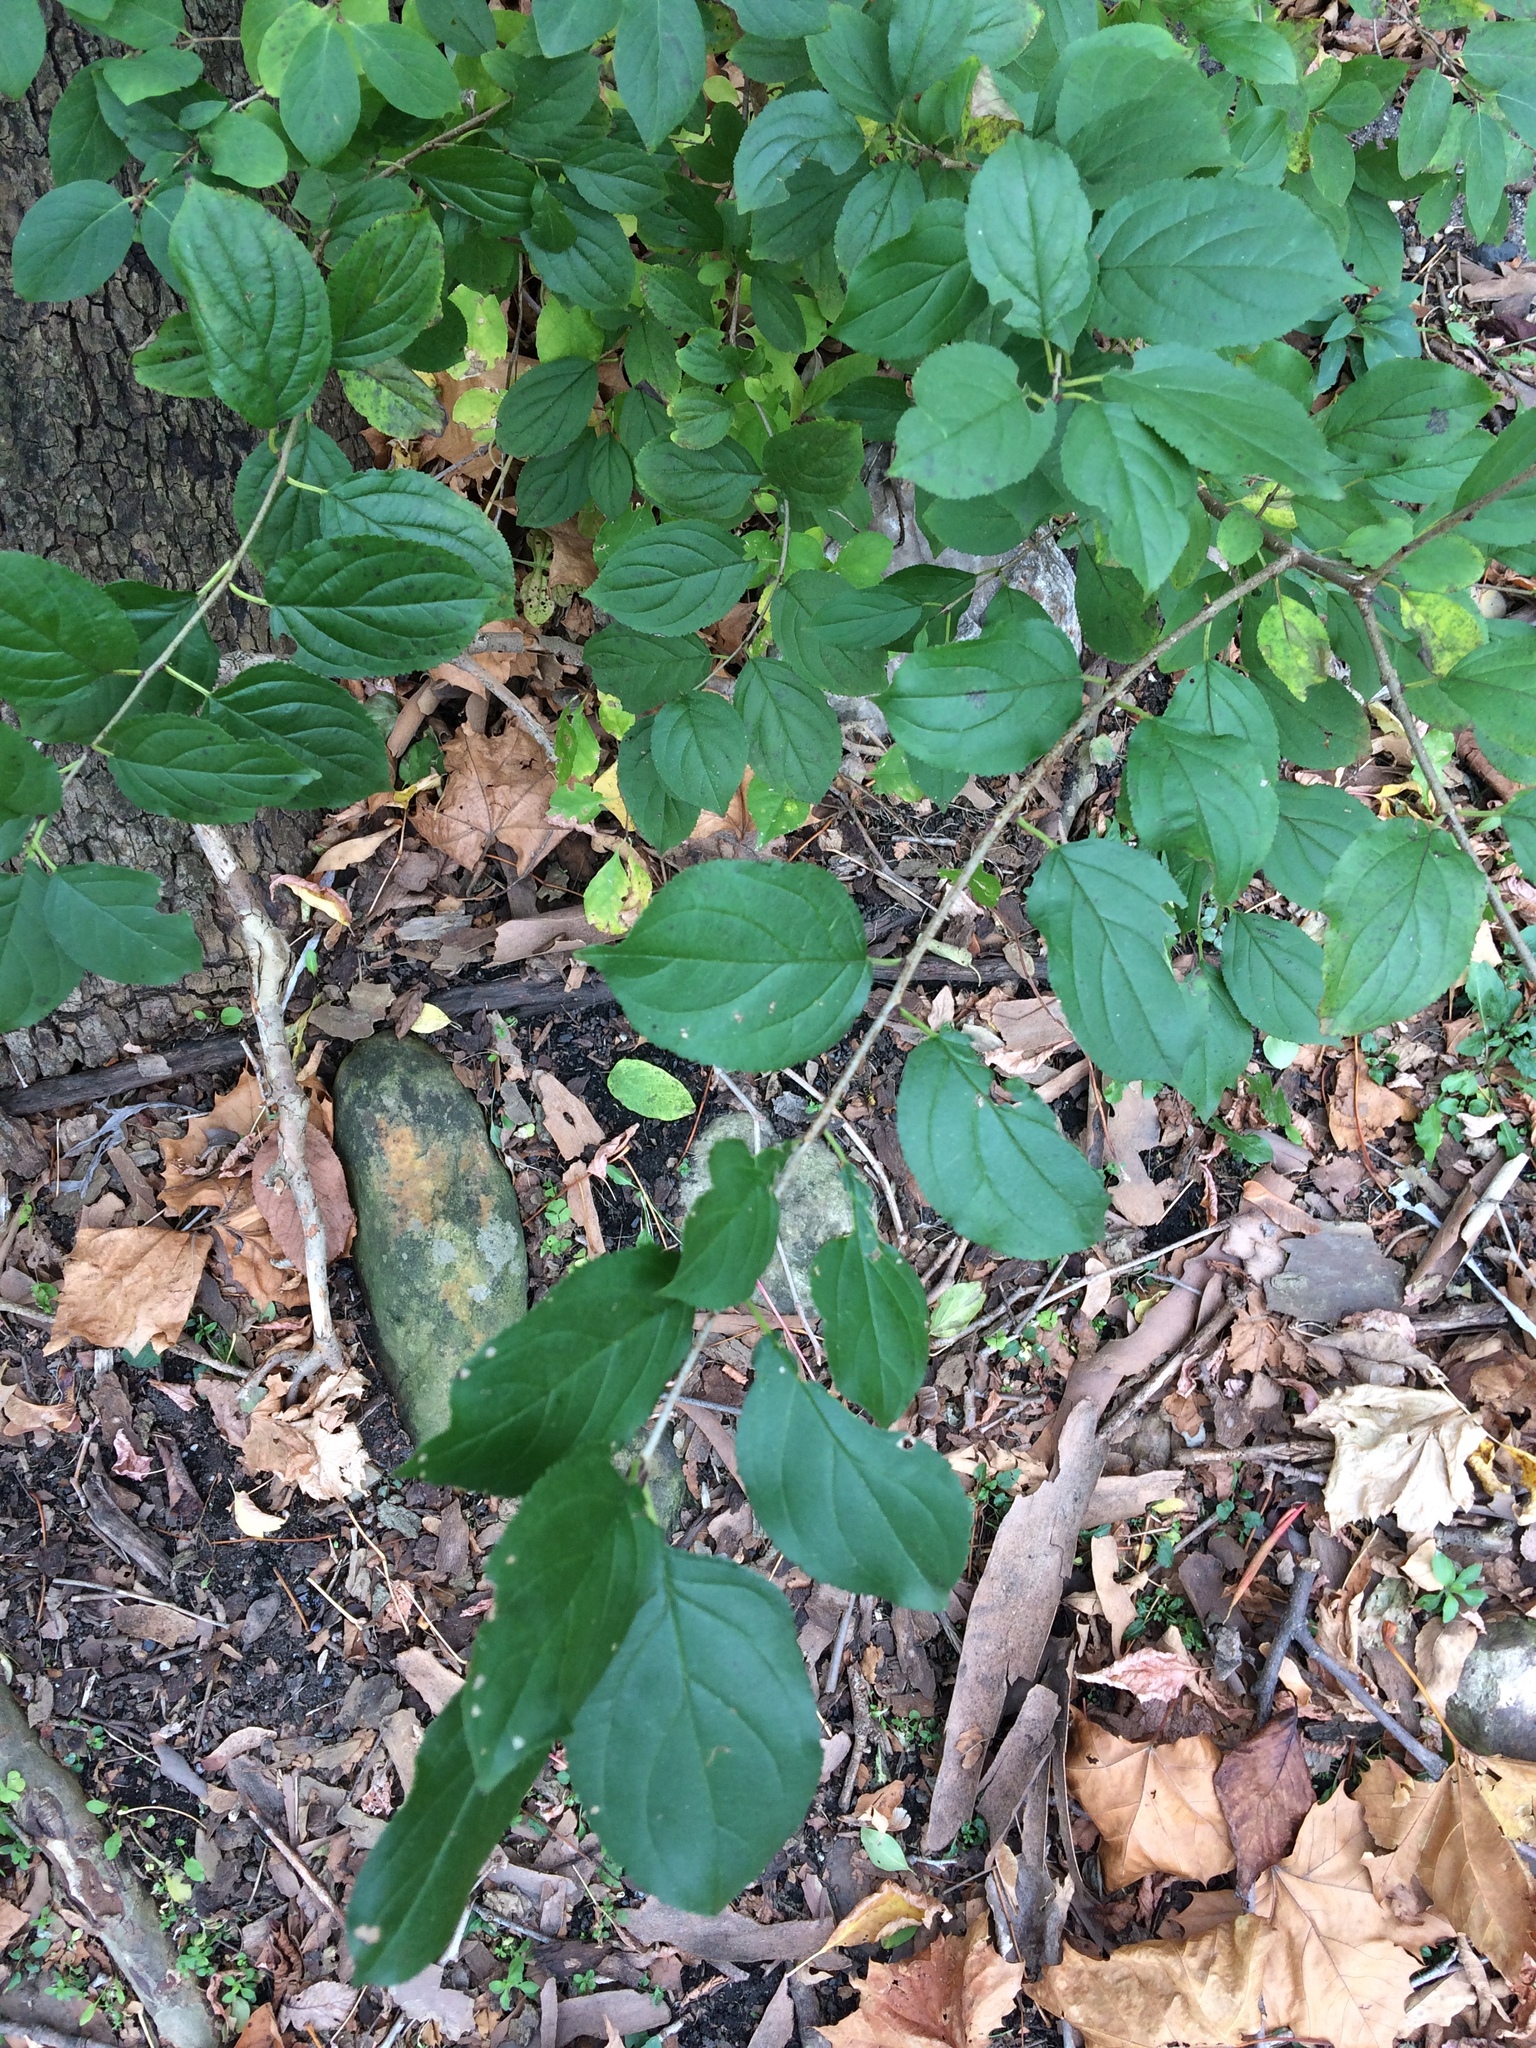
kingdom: Plantae
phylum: Tracheophyta
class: Magnoliopsida
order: Rosales
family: Rhamnaceae
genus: Rhamnus
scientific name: Rhamnus cathartica
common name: Common buckthorn
